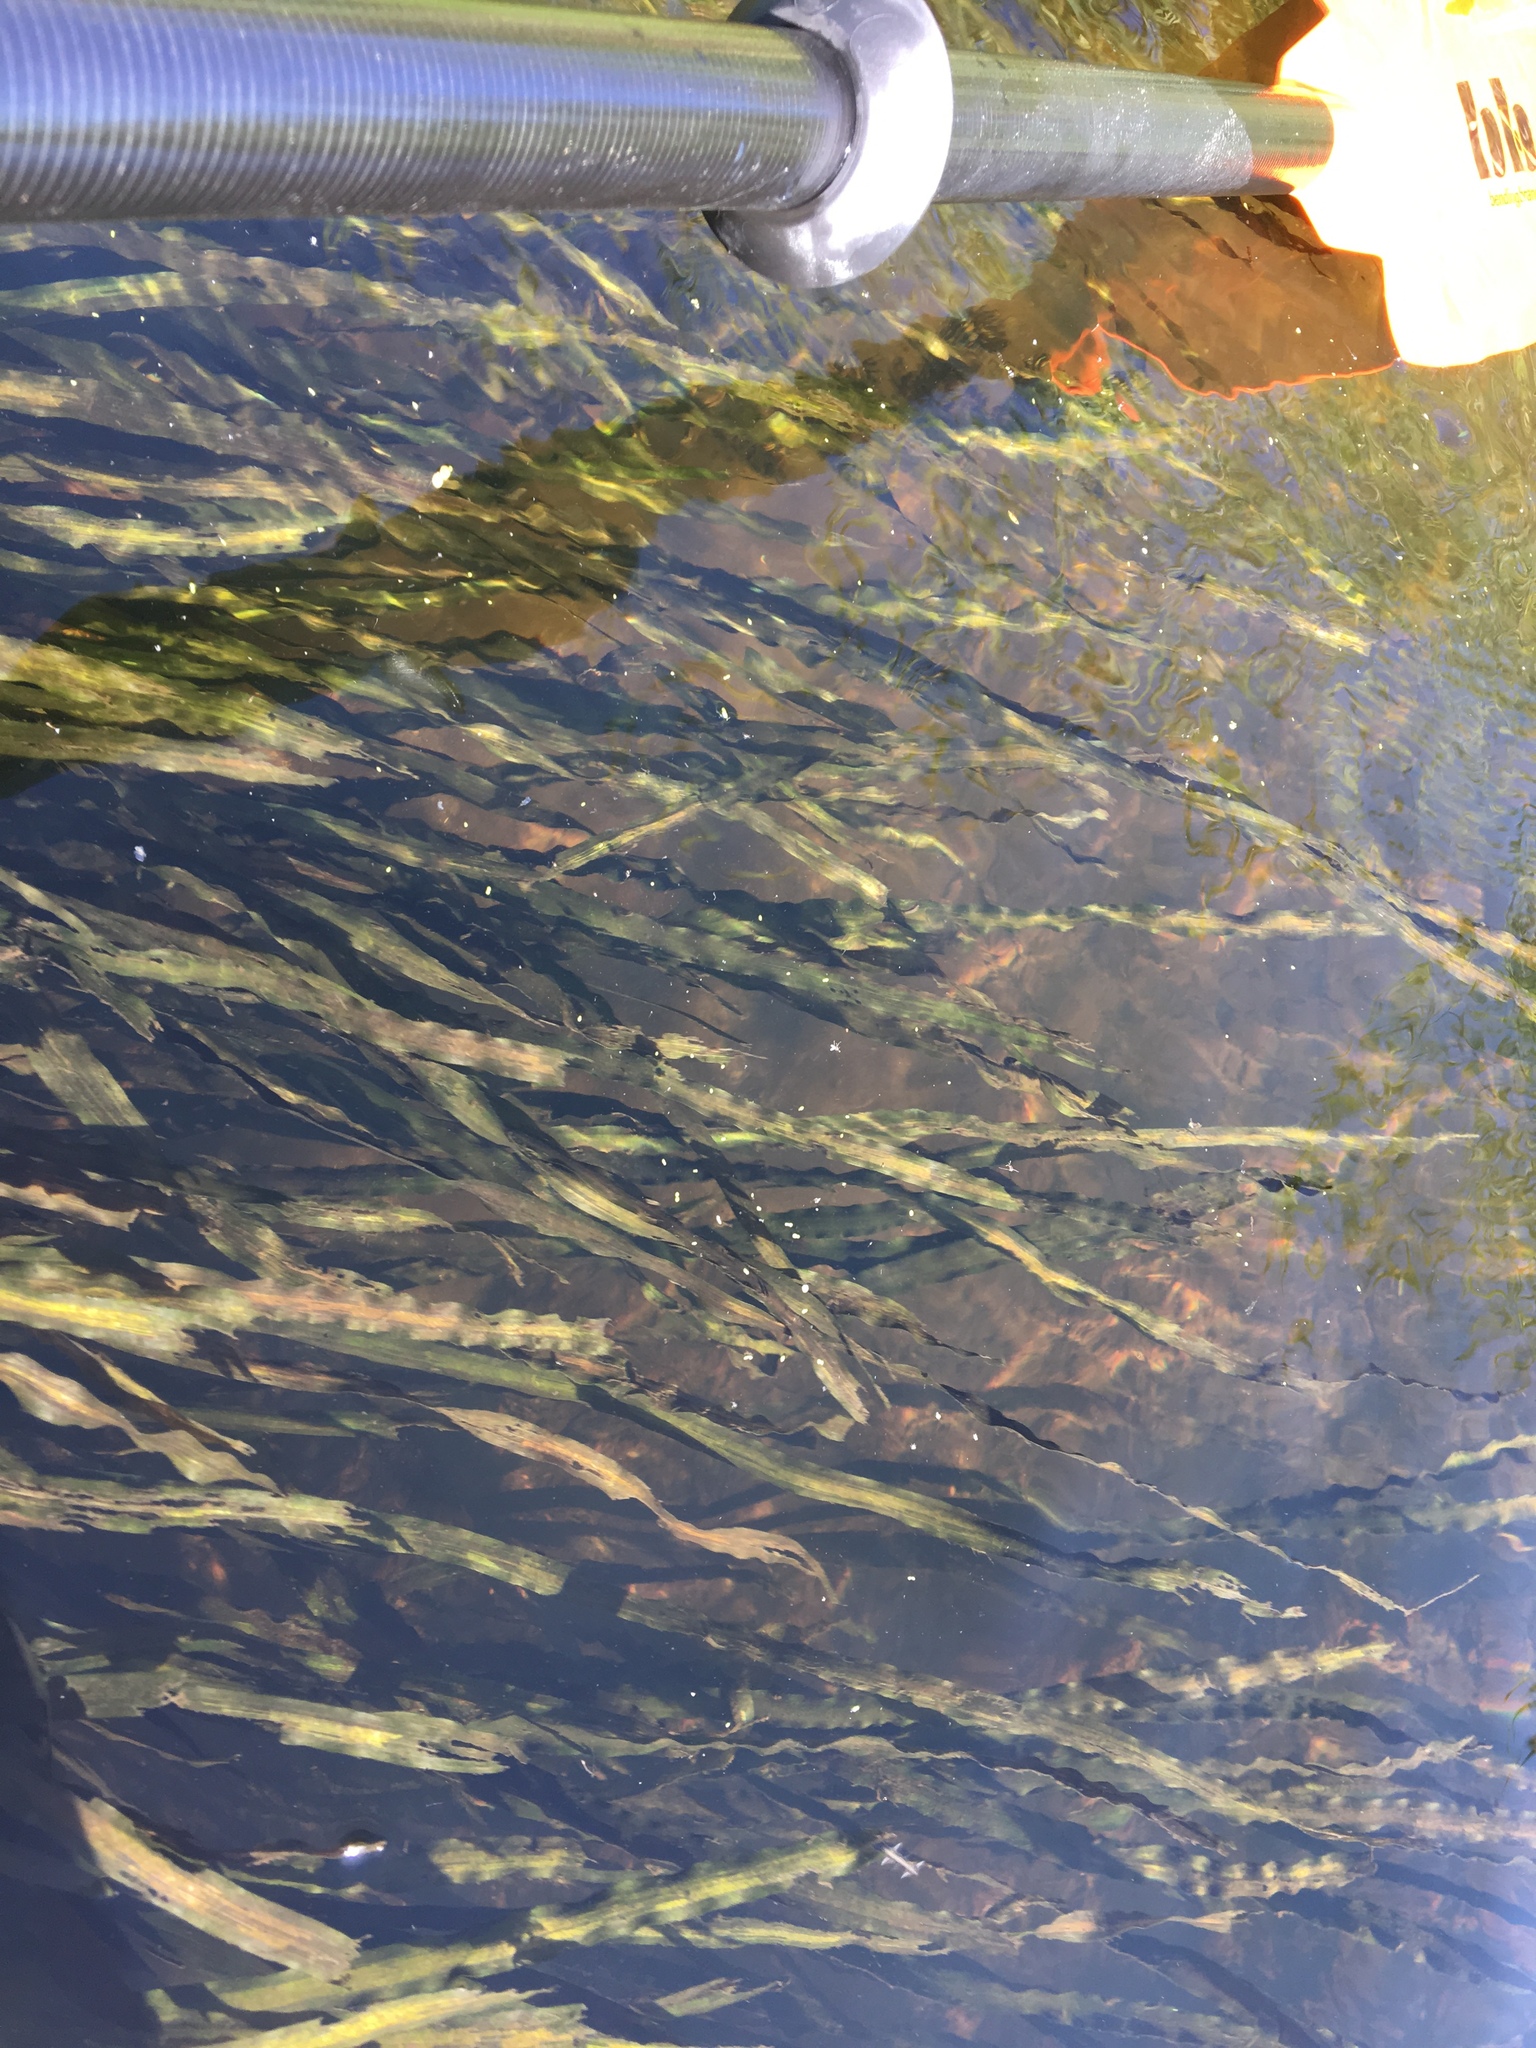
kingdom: Plantae
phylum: Tracheophyta
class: Liliopsida
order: Alismatales
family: Hydrocharitaceae
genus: Vallisneria
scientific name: Vallisneria americana
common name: American eelgrass
